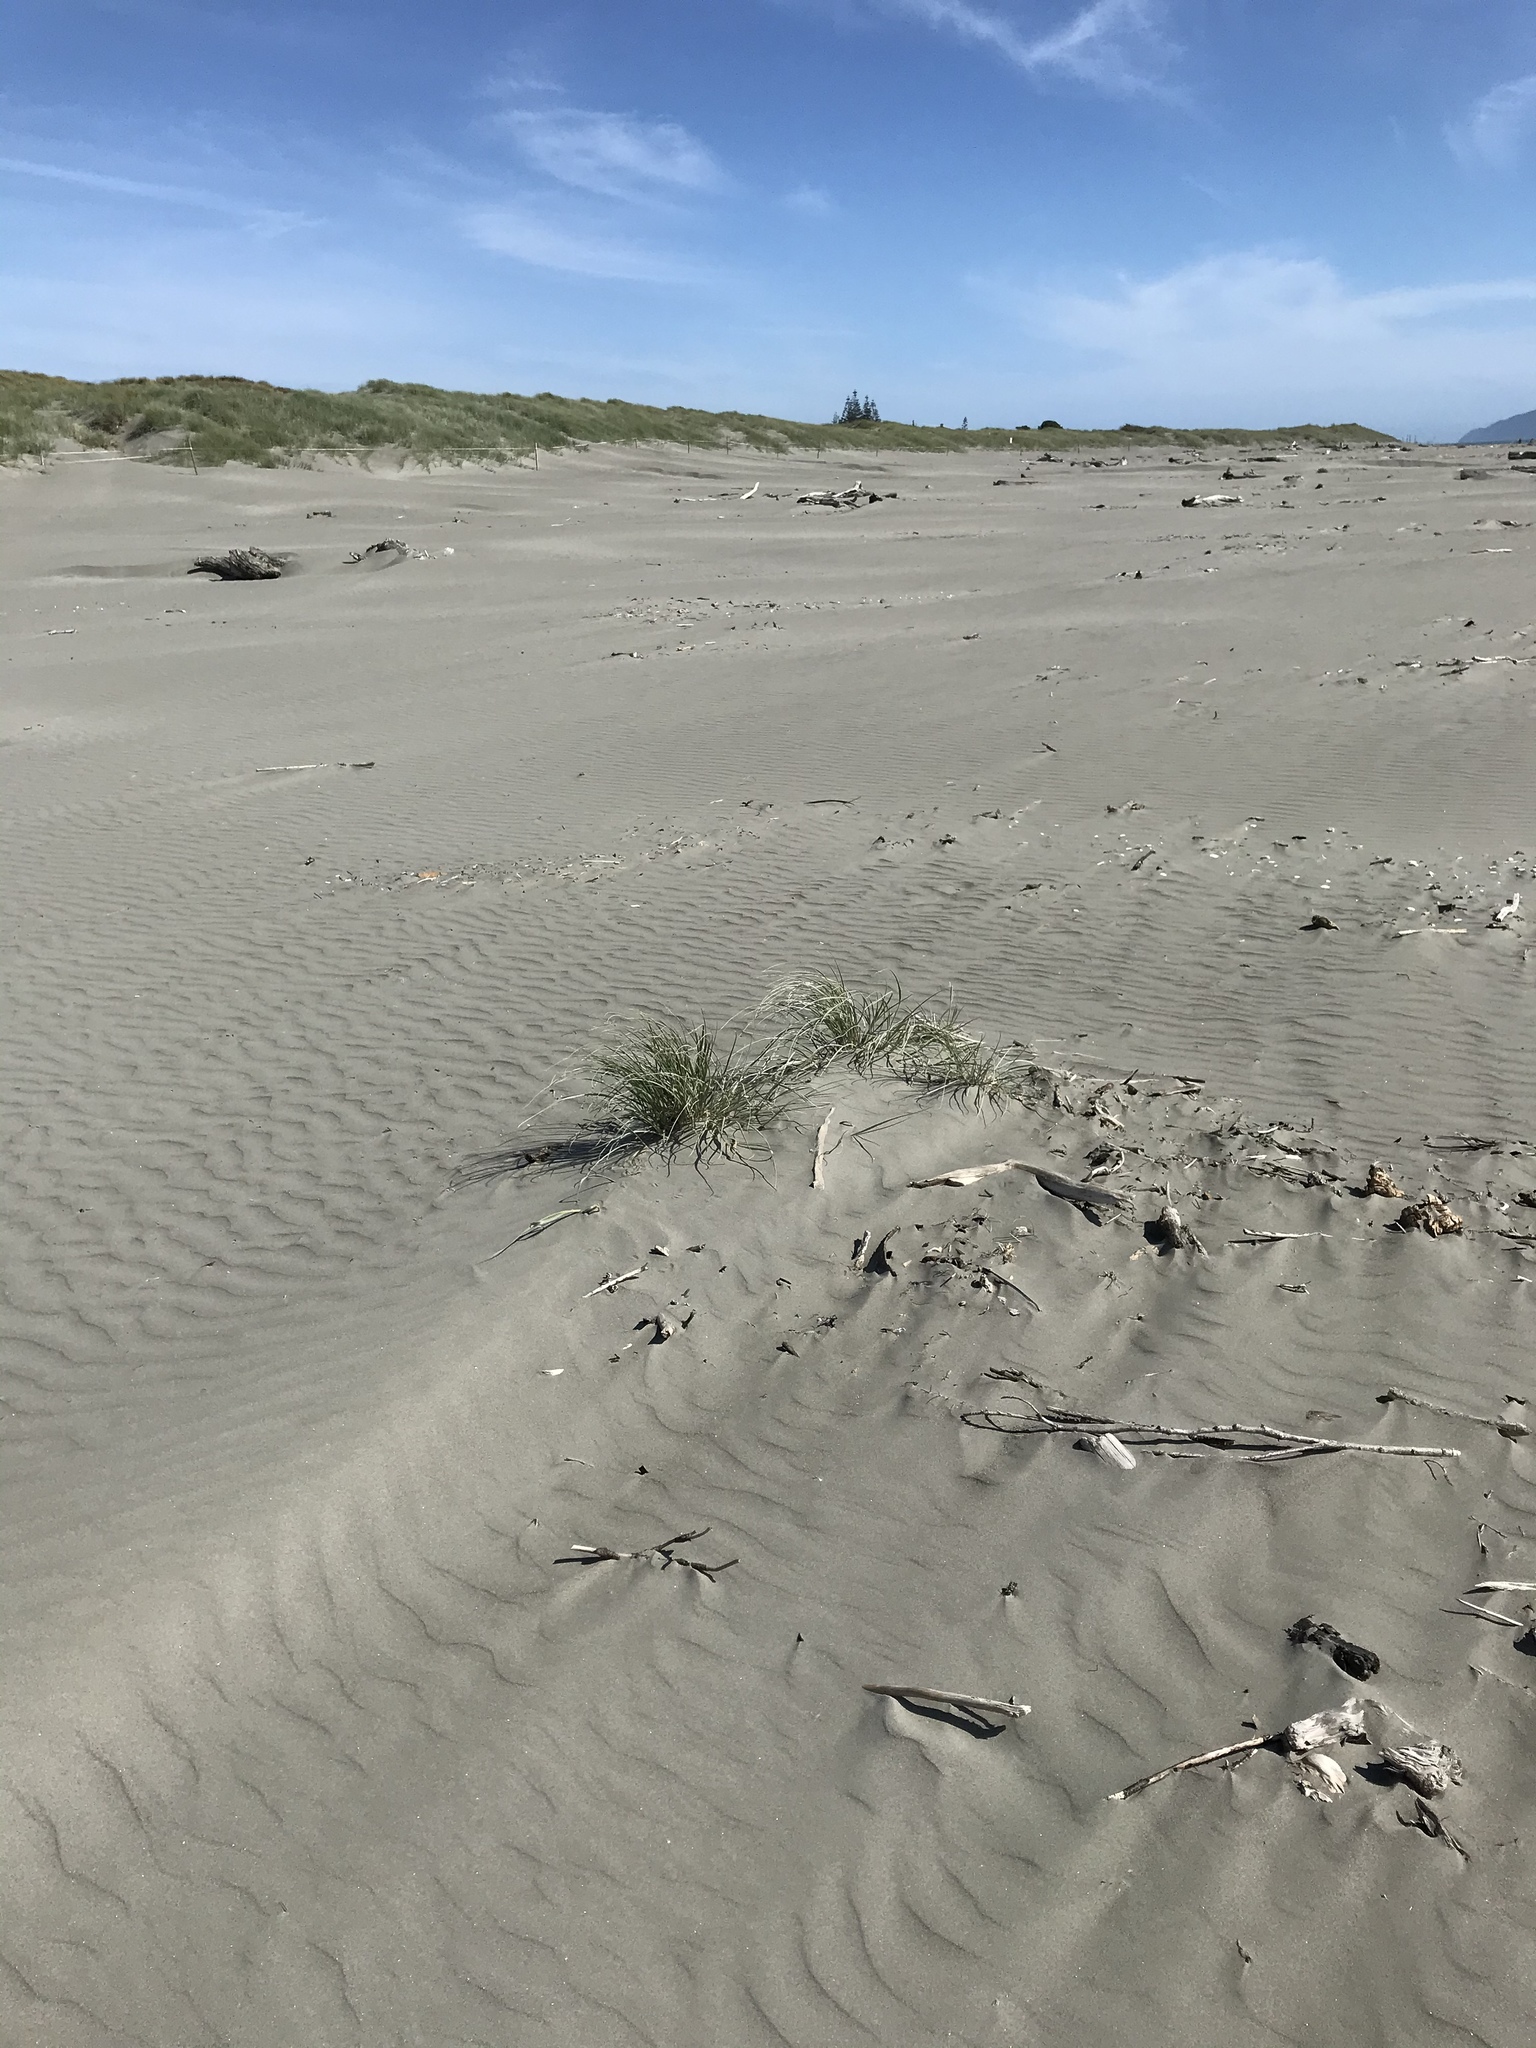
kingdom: Plantae
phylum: Tracheophyta
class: Liliopsida
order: Poales
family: Poaceae
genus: Spinifex
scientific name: Spinifex sericeus
